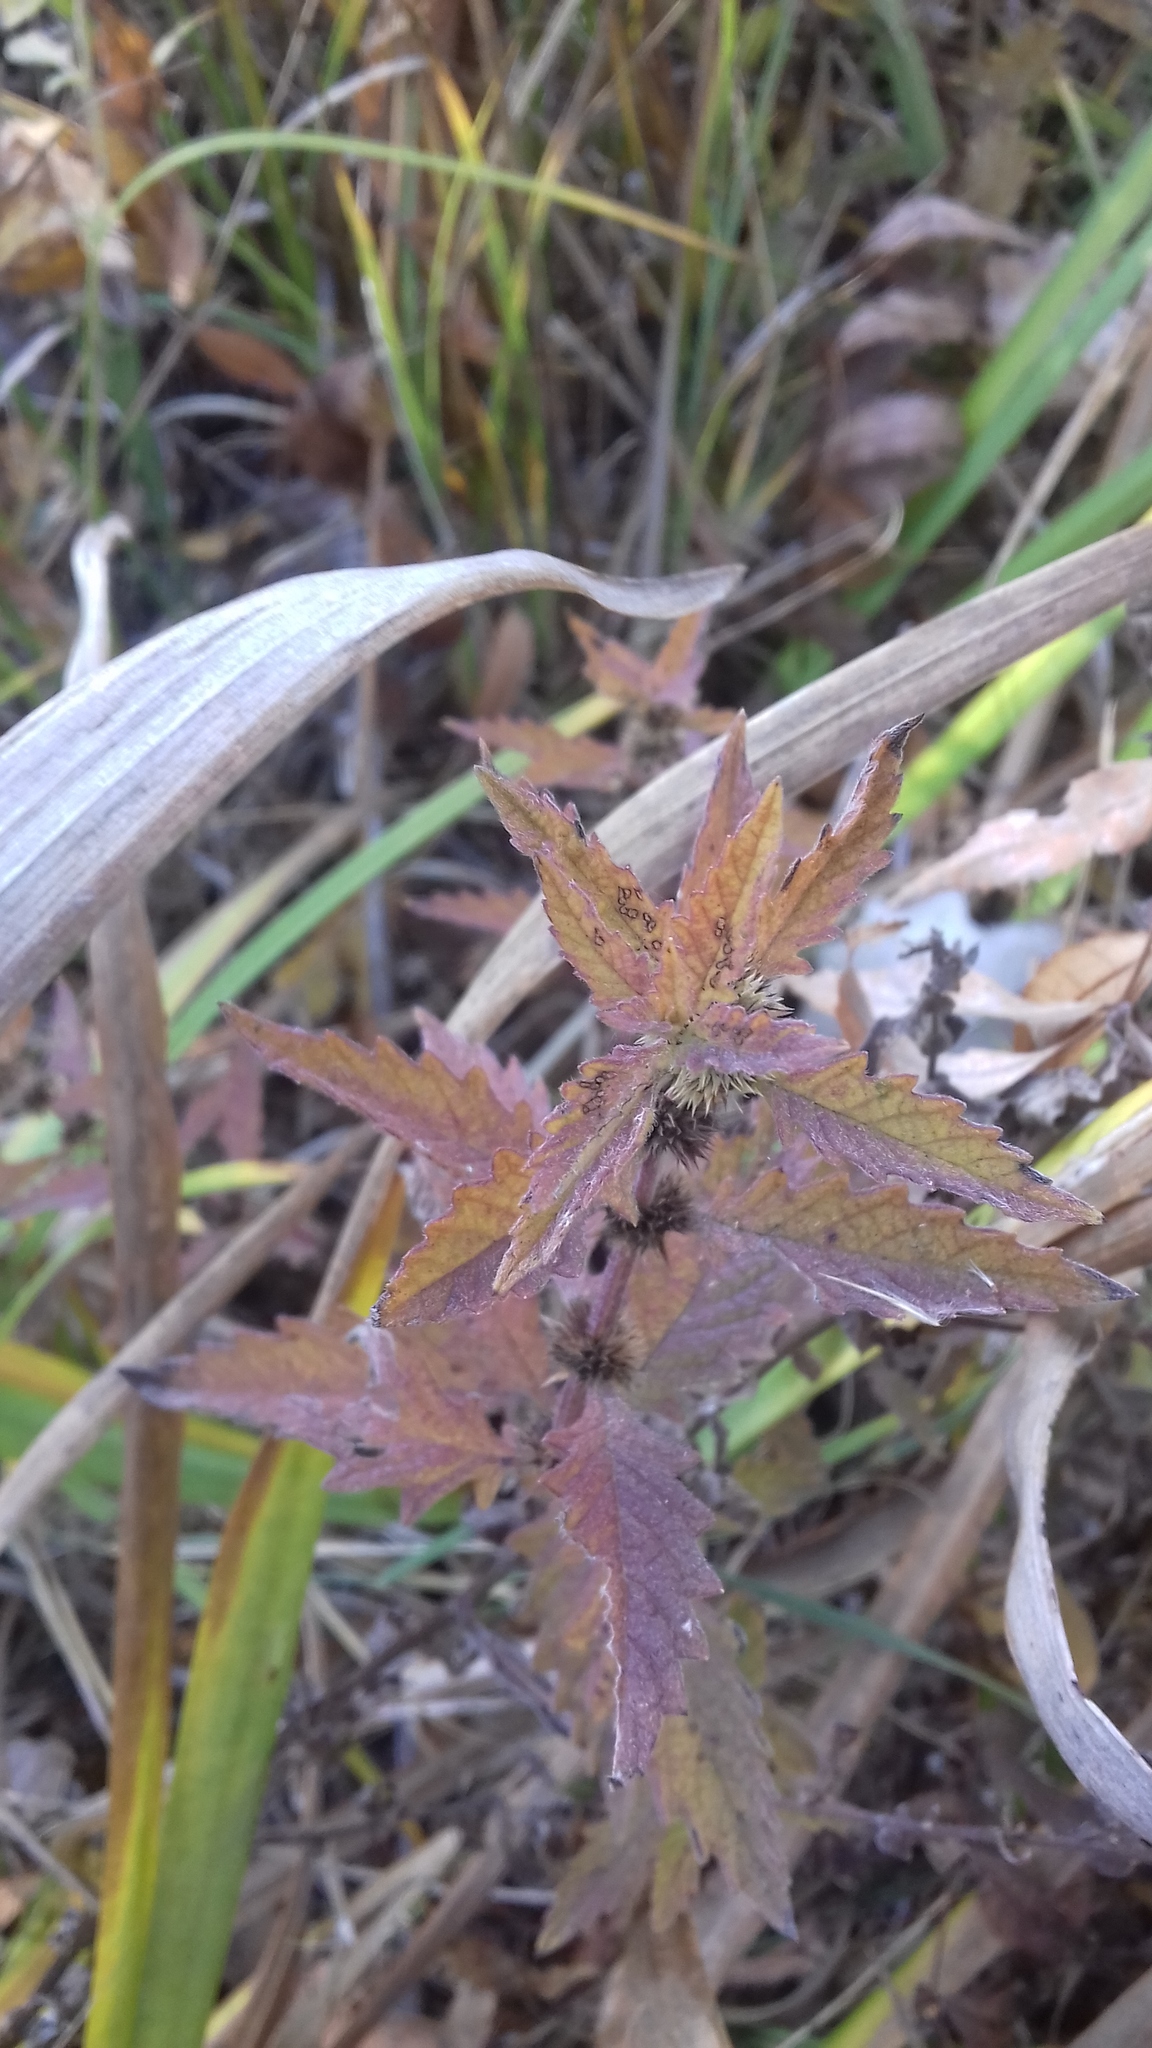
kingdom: Plantae
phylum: Tracheophyta
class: Magnoliopsida
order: Lamiales
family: Lamiaceae
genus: Lycopus
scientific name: Lycopus europaeus
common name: European bugleweed
